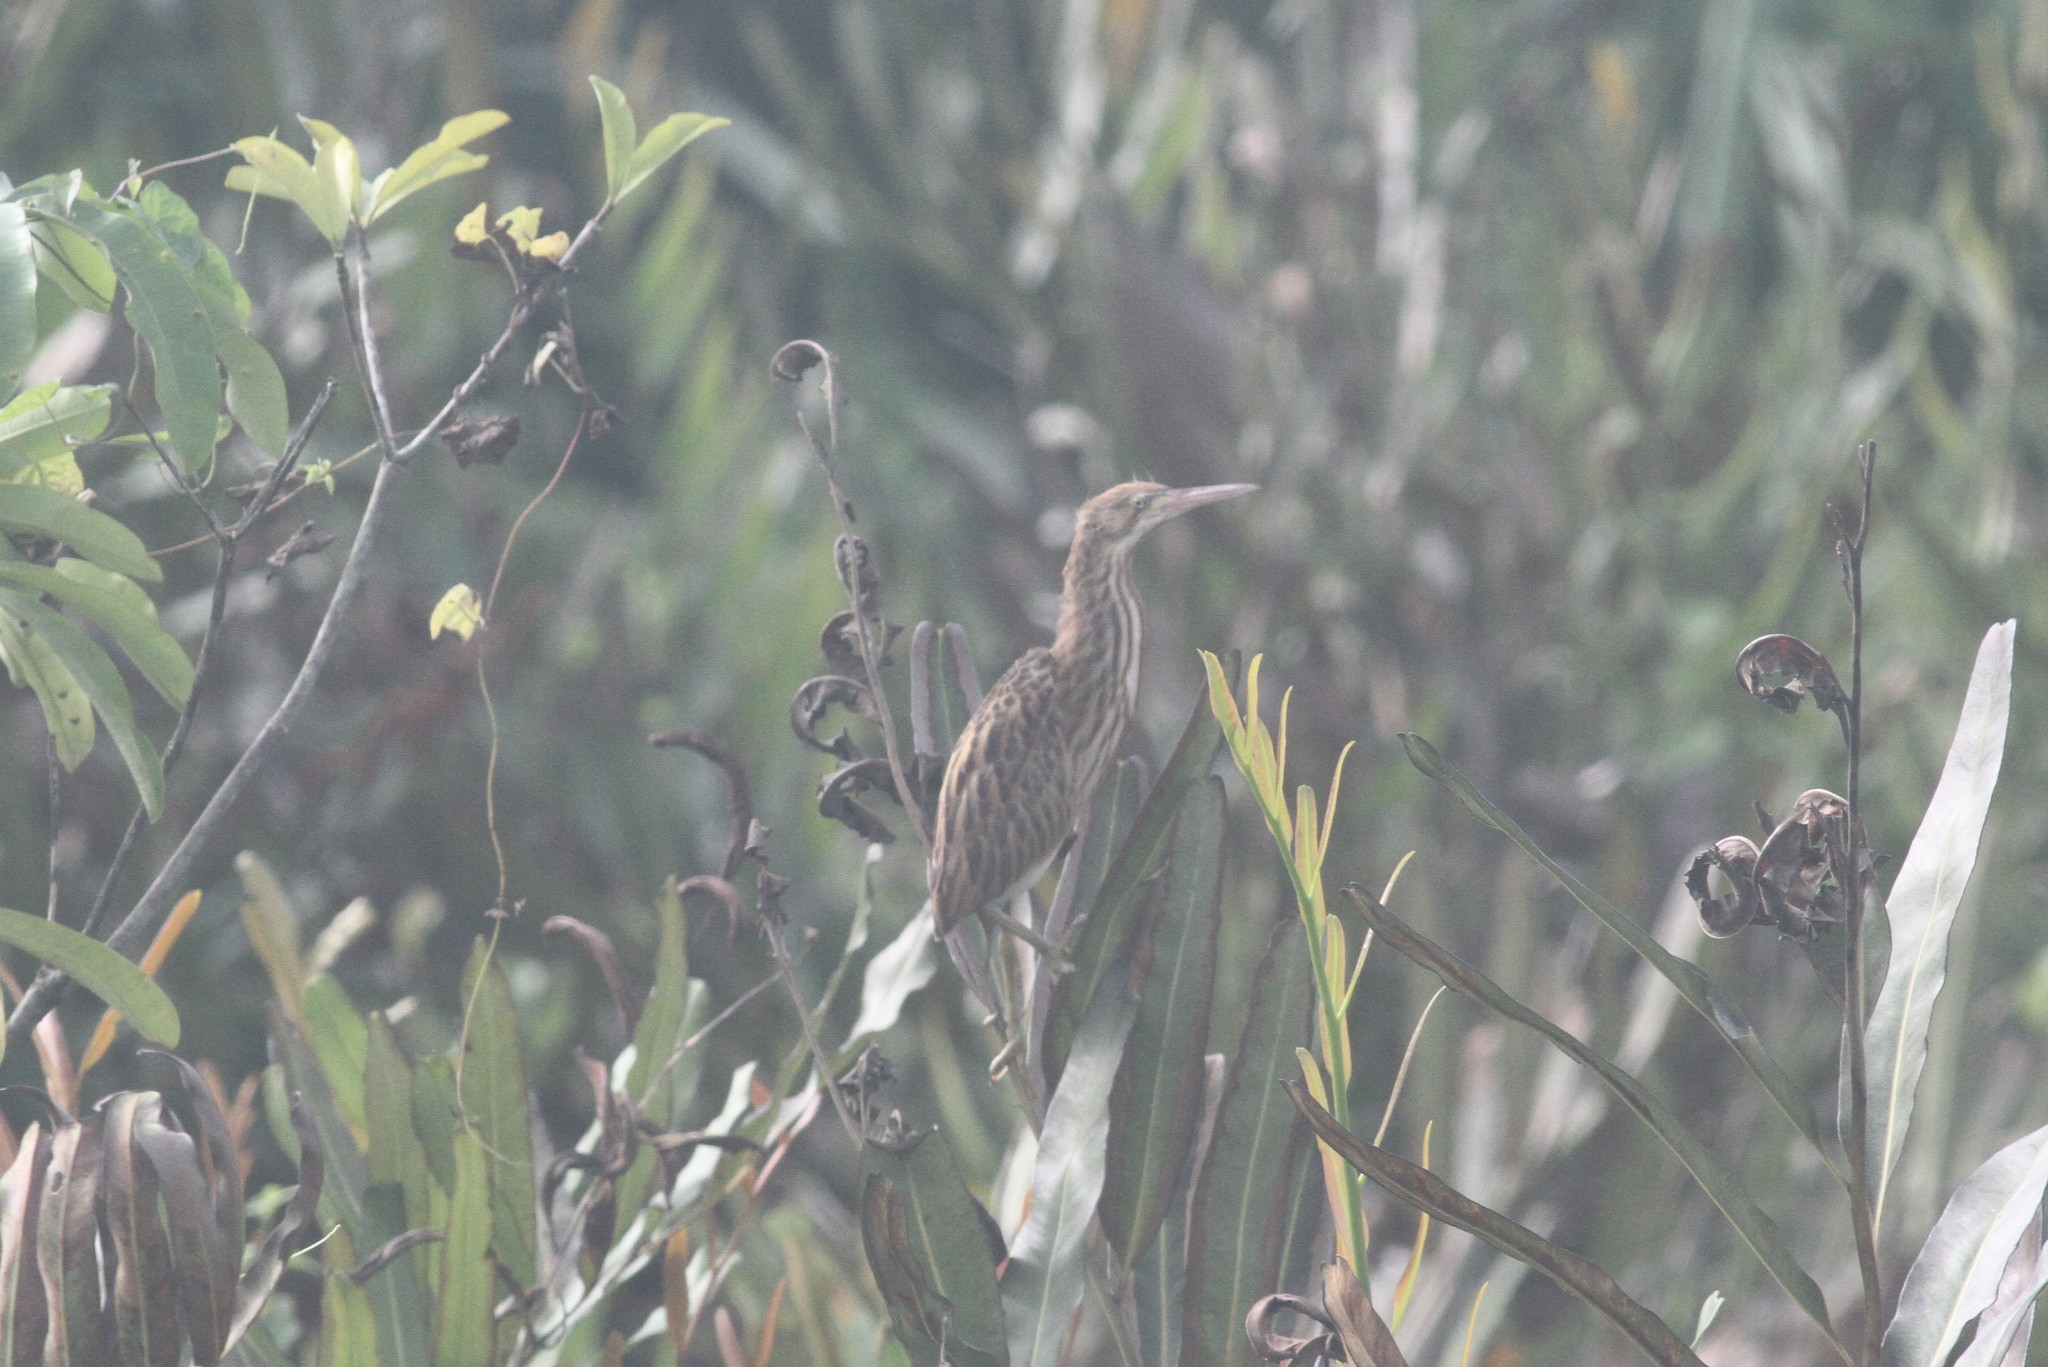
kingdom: Animalia
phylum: Chordata
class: Aves
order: Pelecaniformes
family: Ardeidae
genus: Ixobrychus
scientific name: Ixobrychus sinensis
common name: Yellow bittern
